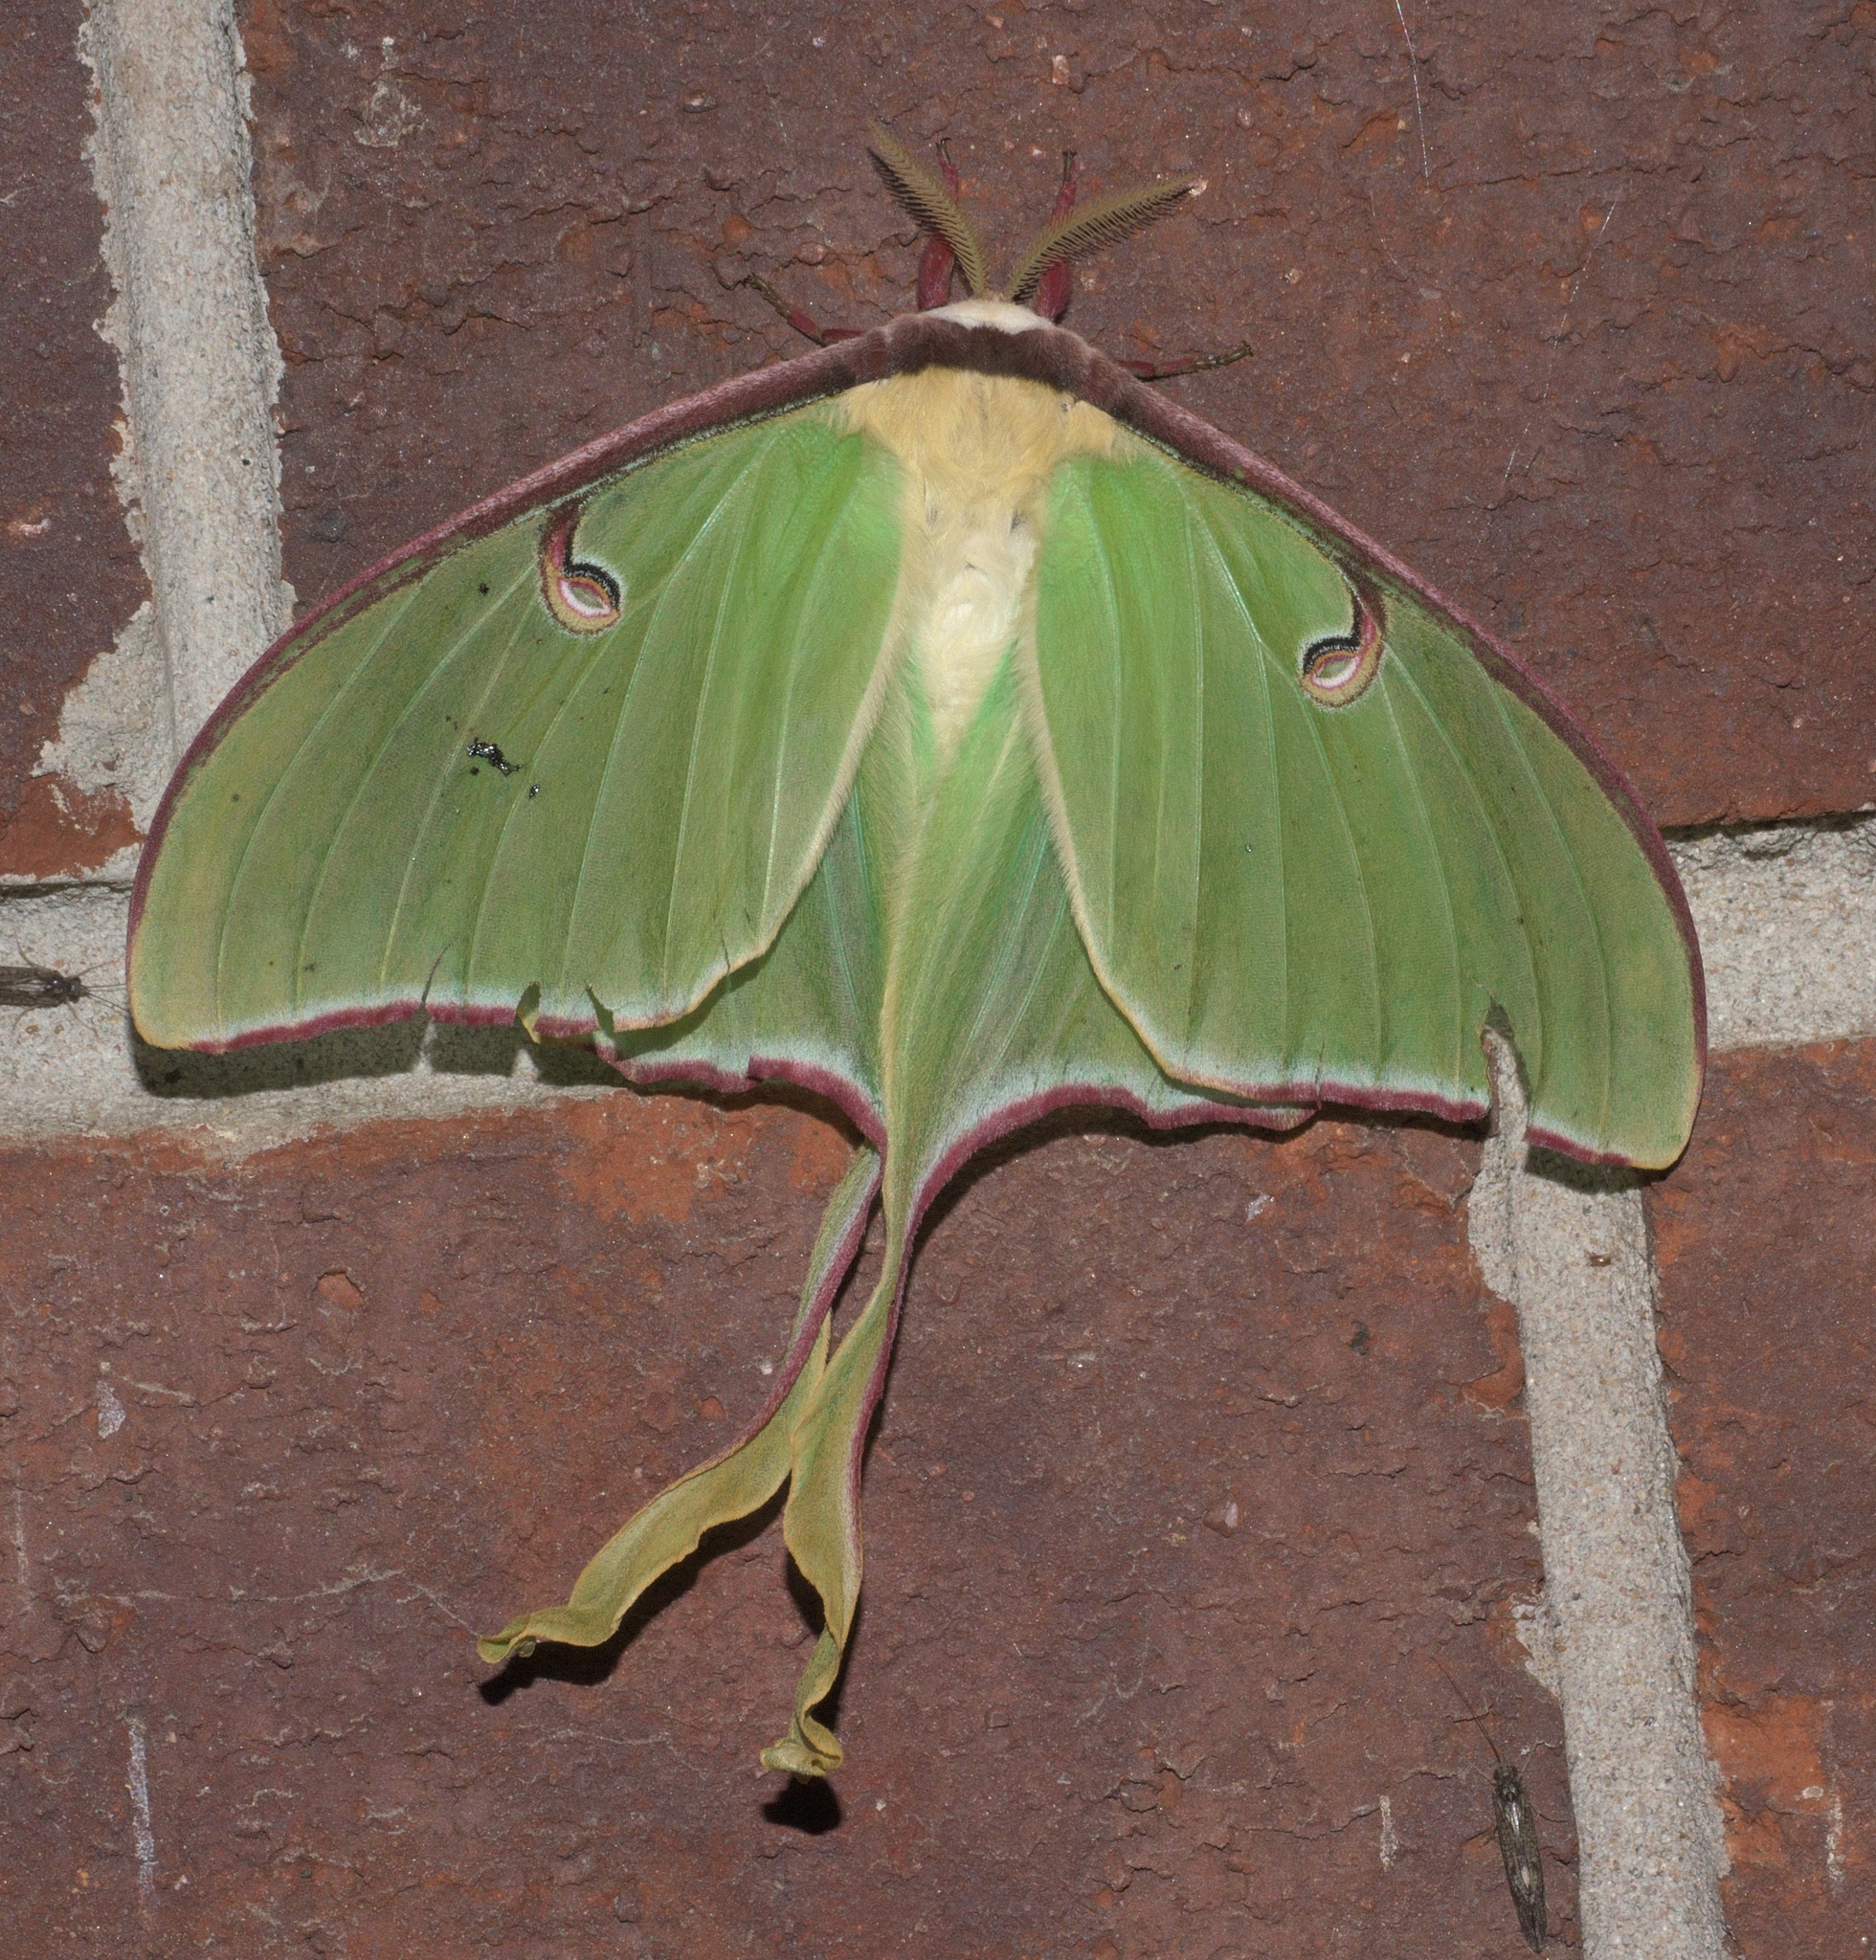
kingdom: Animalia
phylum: Arthropoda
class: Insecta
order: Lepidoptera
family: Saturniidae
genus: Actias
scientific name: Actias luna
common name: Luna moth
